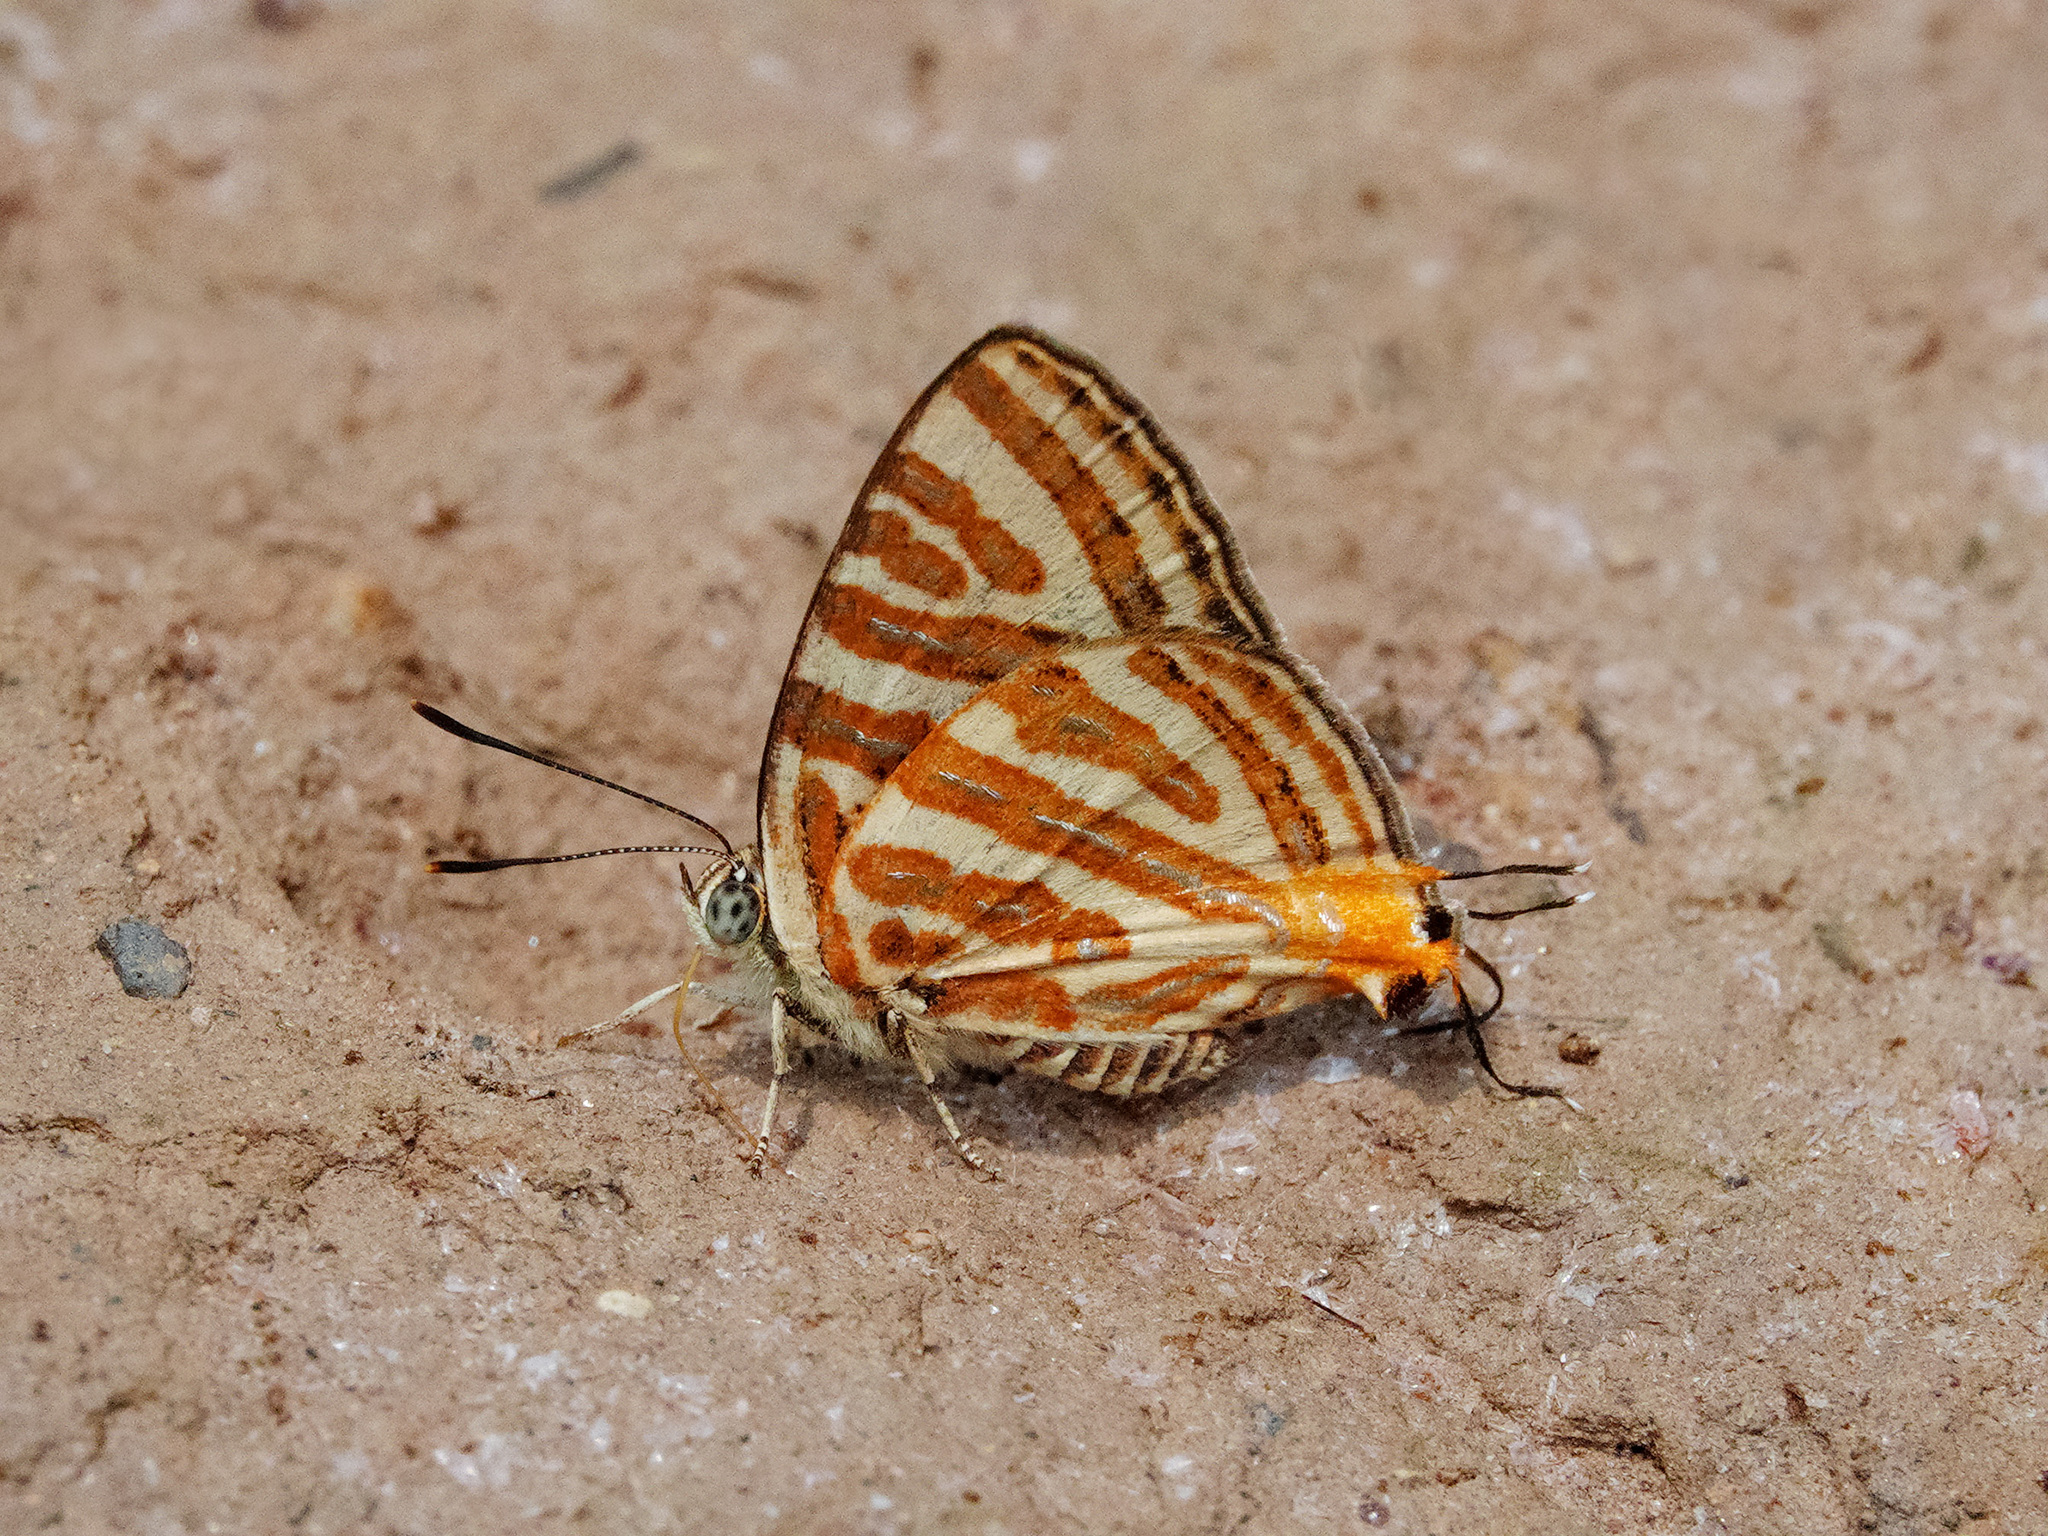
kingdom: Animalia
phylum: Arthropoda
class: Insecta
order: Lepidoptera
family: Lycaenidae
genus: Cigaritis
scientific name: Cigaritis syama
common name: Club silverline
